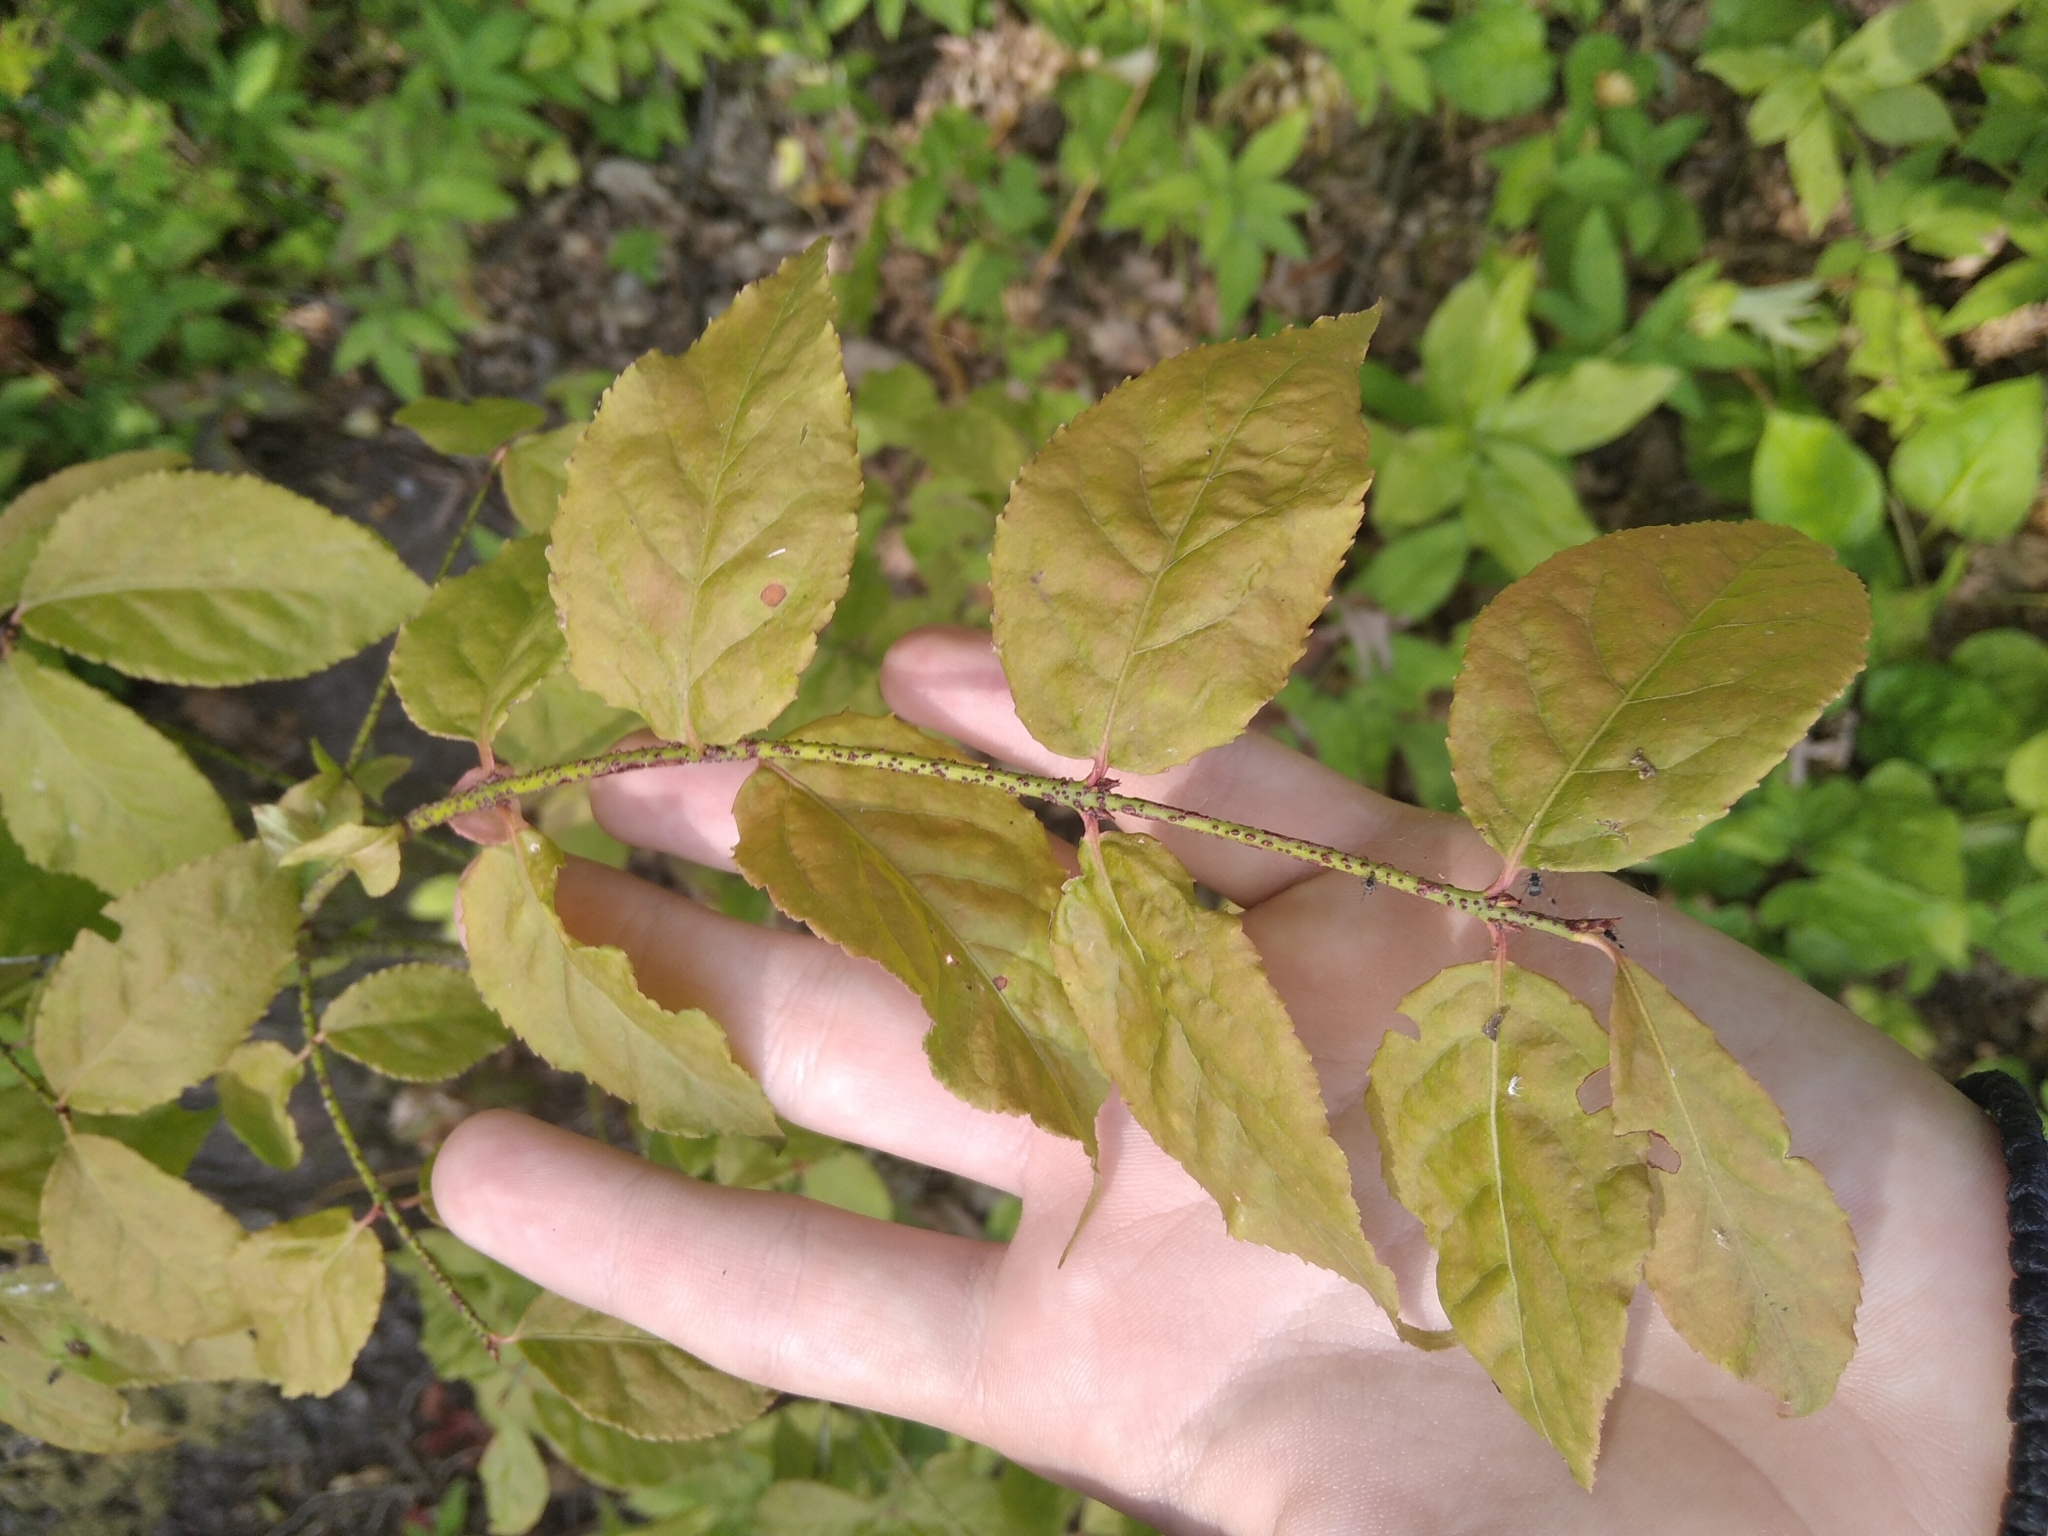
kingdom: Plantae
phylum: Tracheophyta
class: Magnoliopsida
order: Celastrales
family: Celastraceae
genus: Euonymus
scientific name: Euonymus verrucosus
